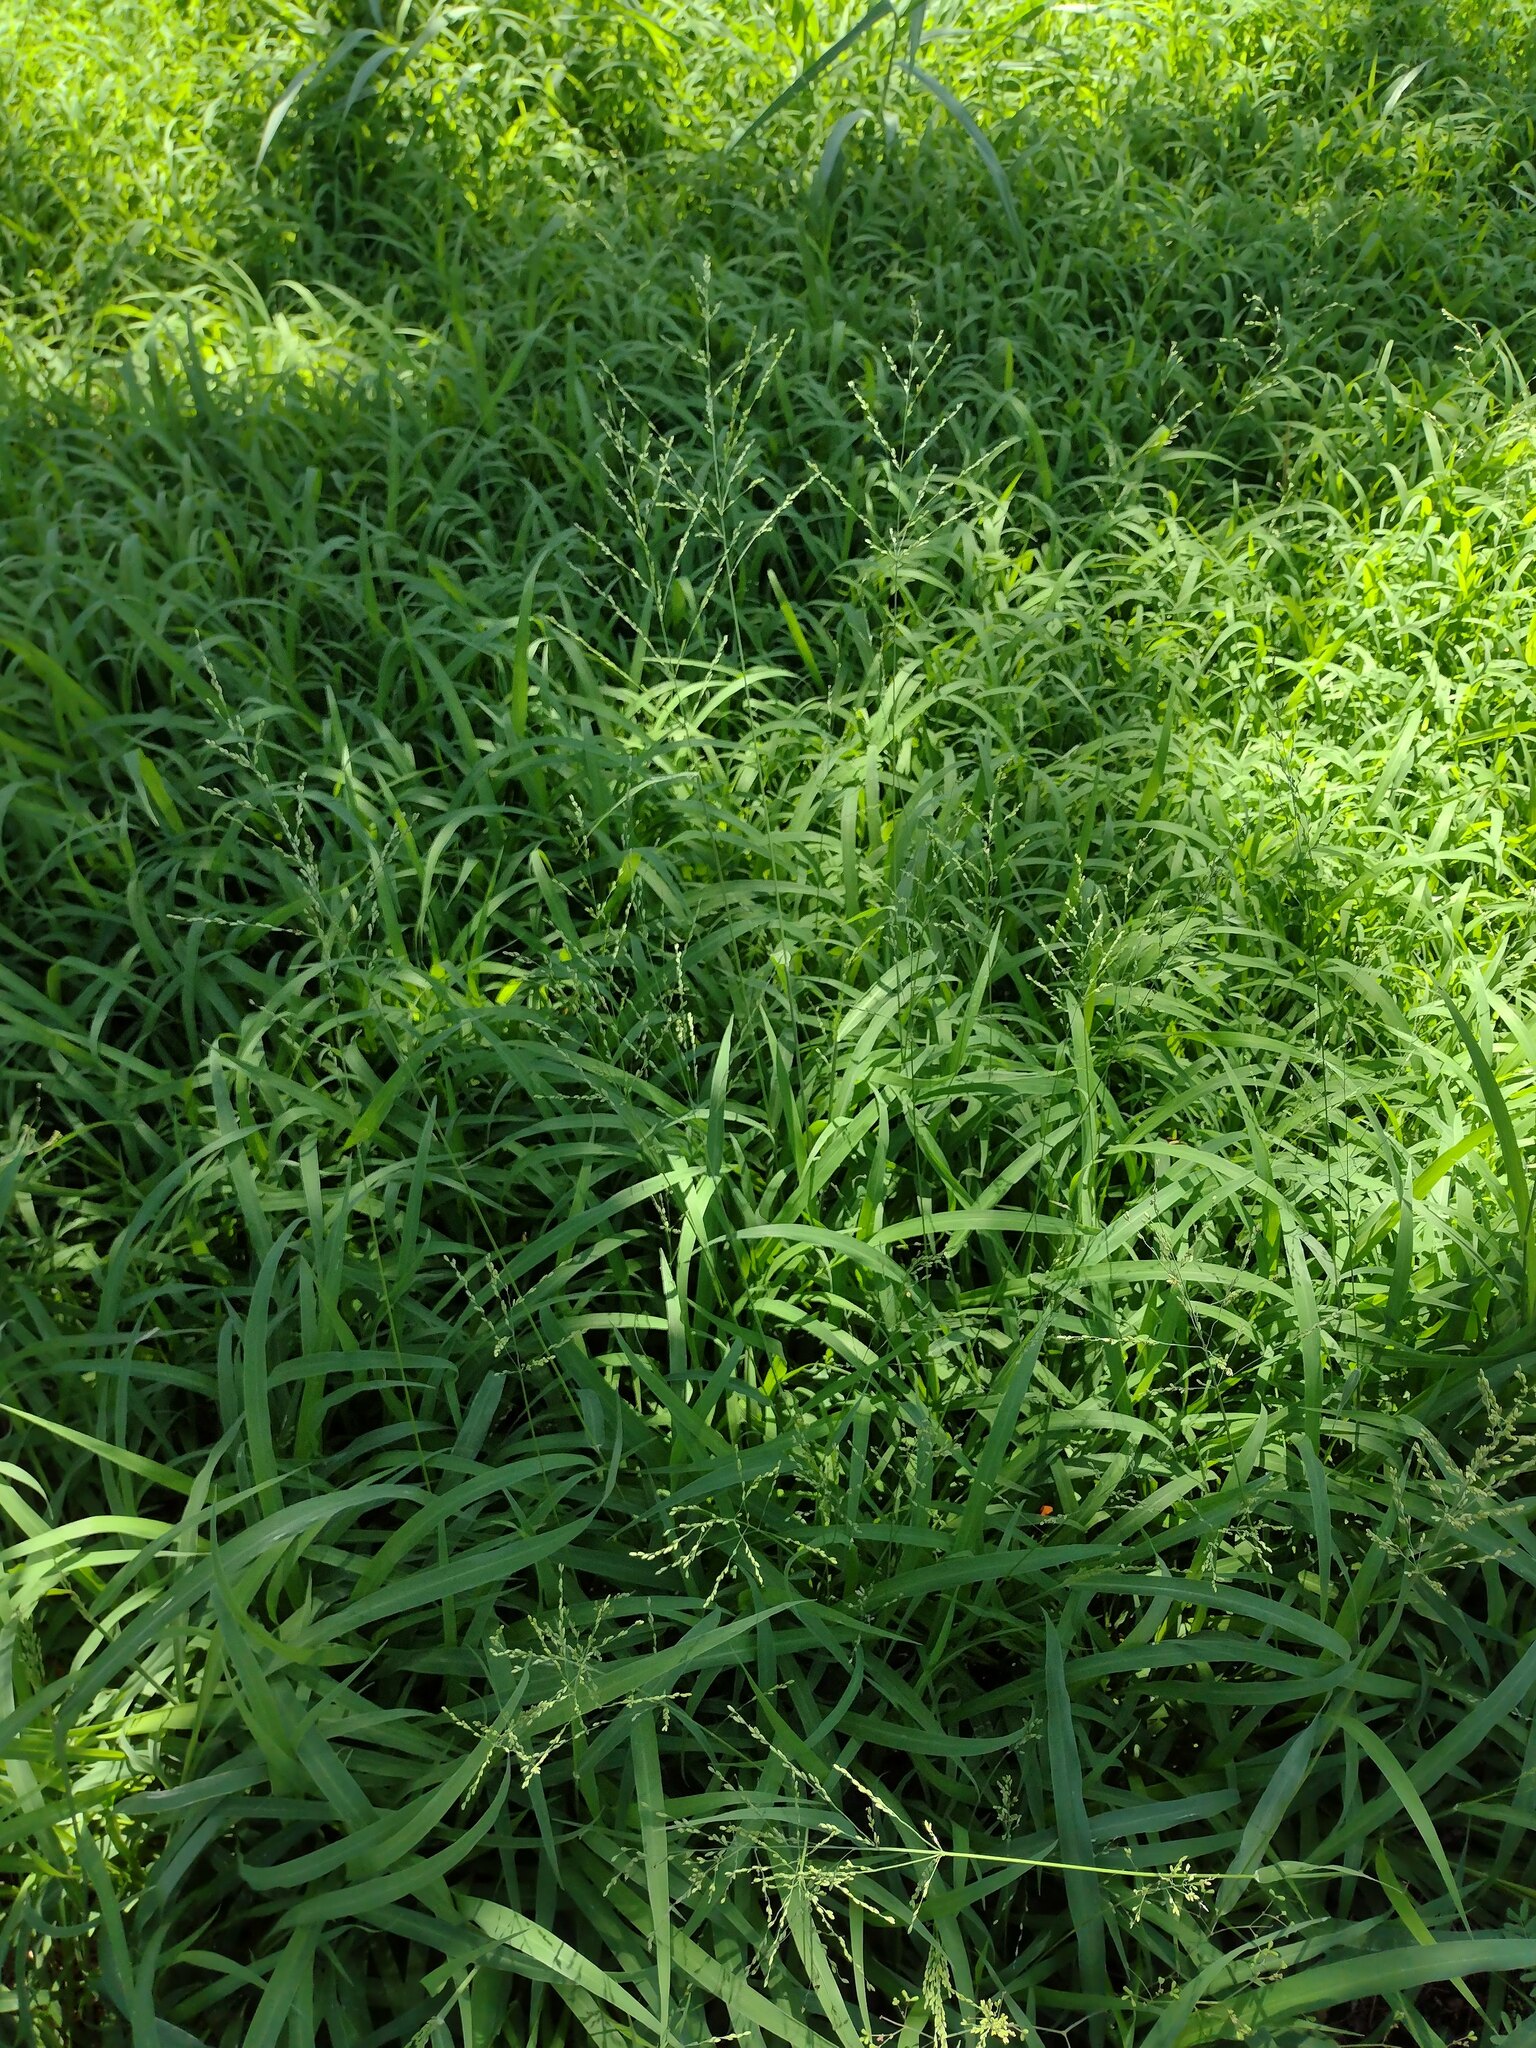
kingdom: Plantae
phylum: Tracheophyta
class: Liliopsida
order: Poales
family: Poaceae
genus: Megathyrsus
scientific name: Megathyrsus maximus
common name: Guineagrass
